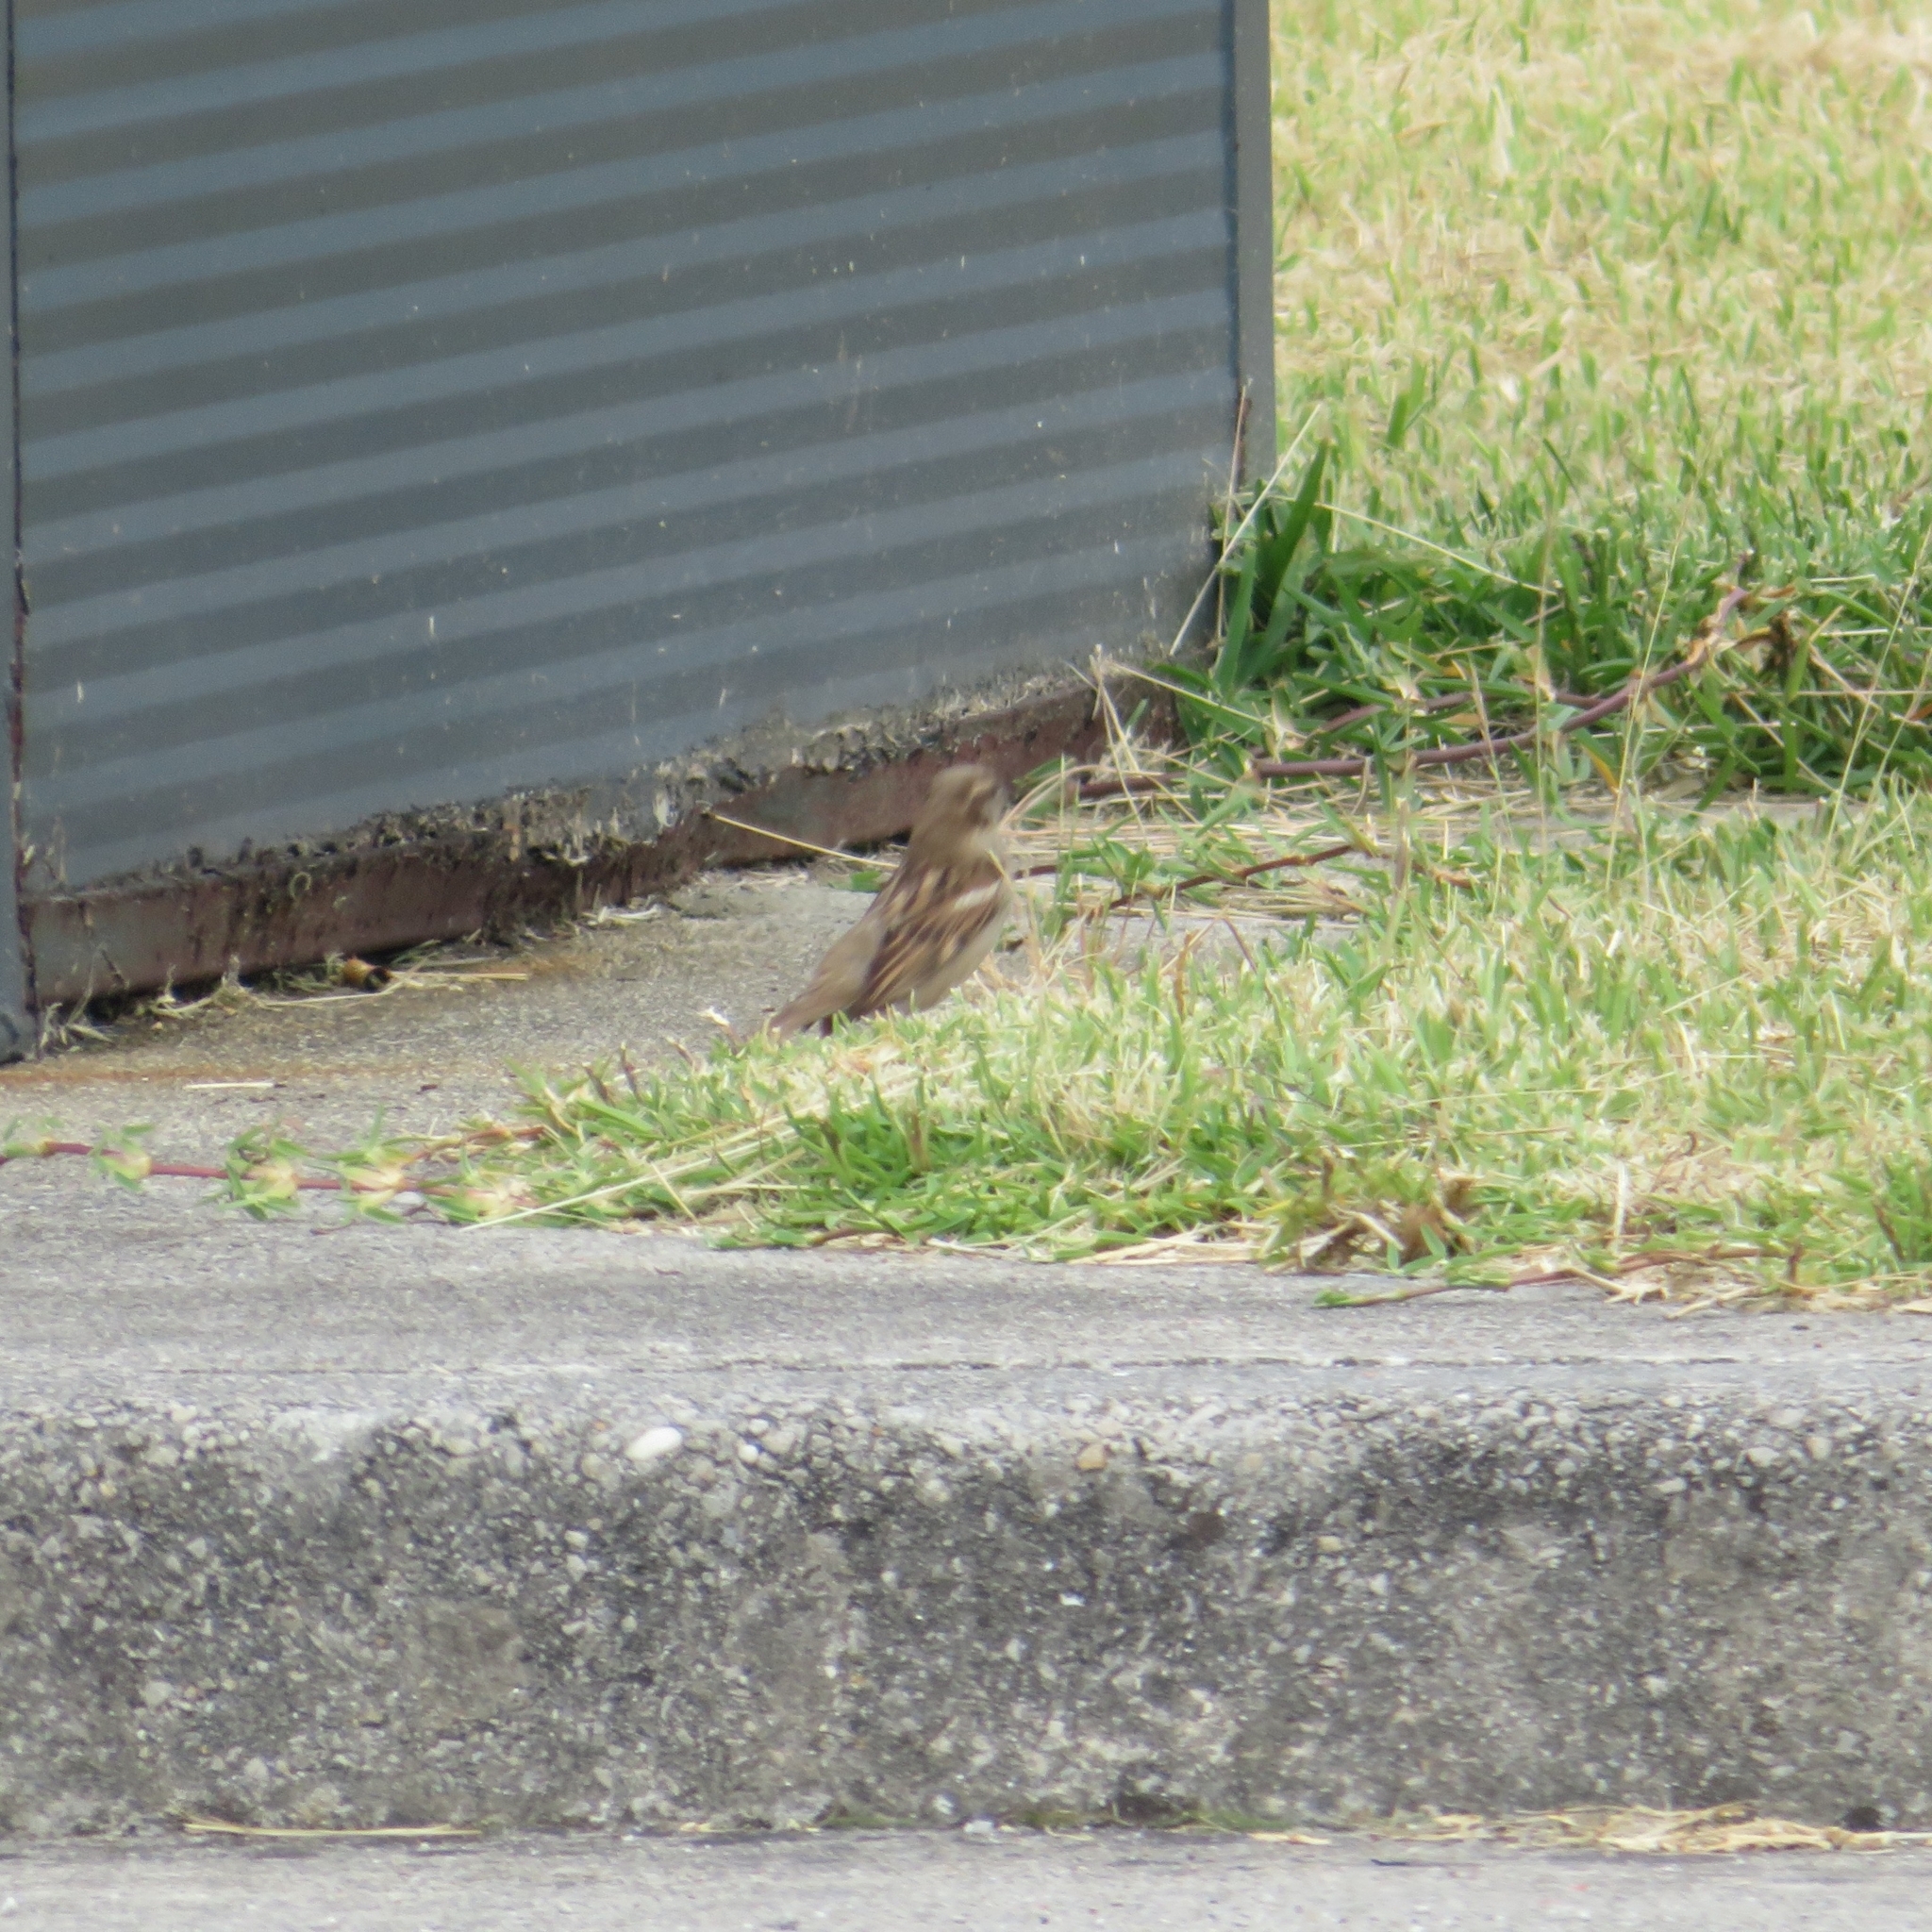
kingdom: Animalia
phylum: Chordata
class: Aves
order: Passeriformes
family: Passeridae
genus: Passer
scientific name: Passer domesticus
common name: House sparrow
